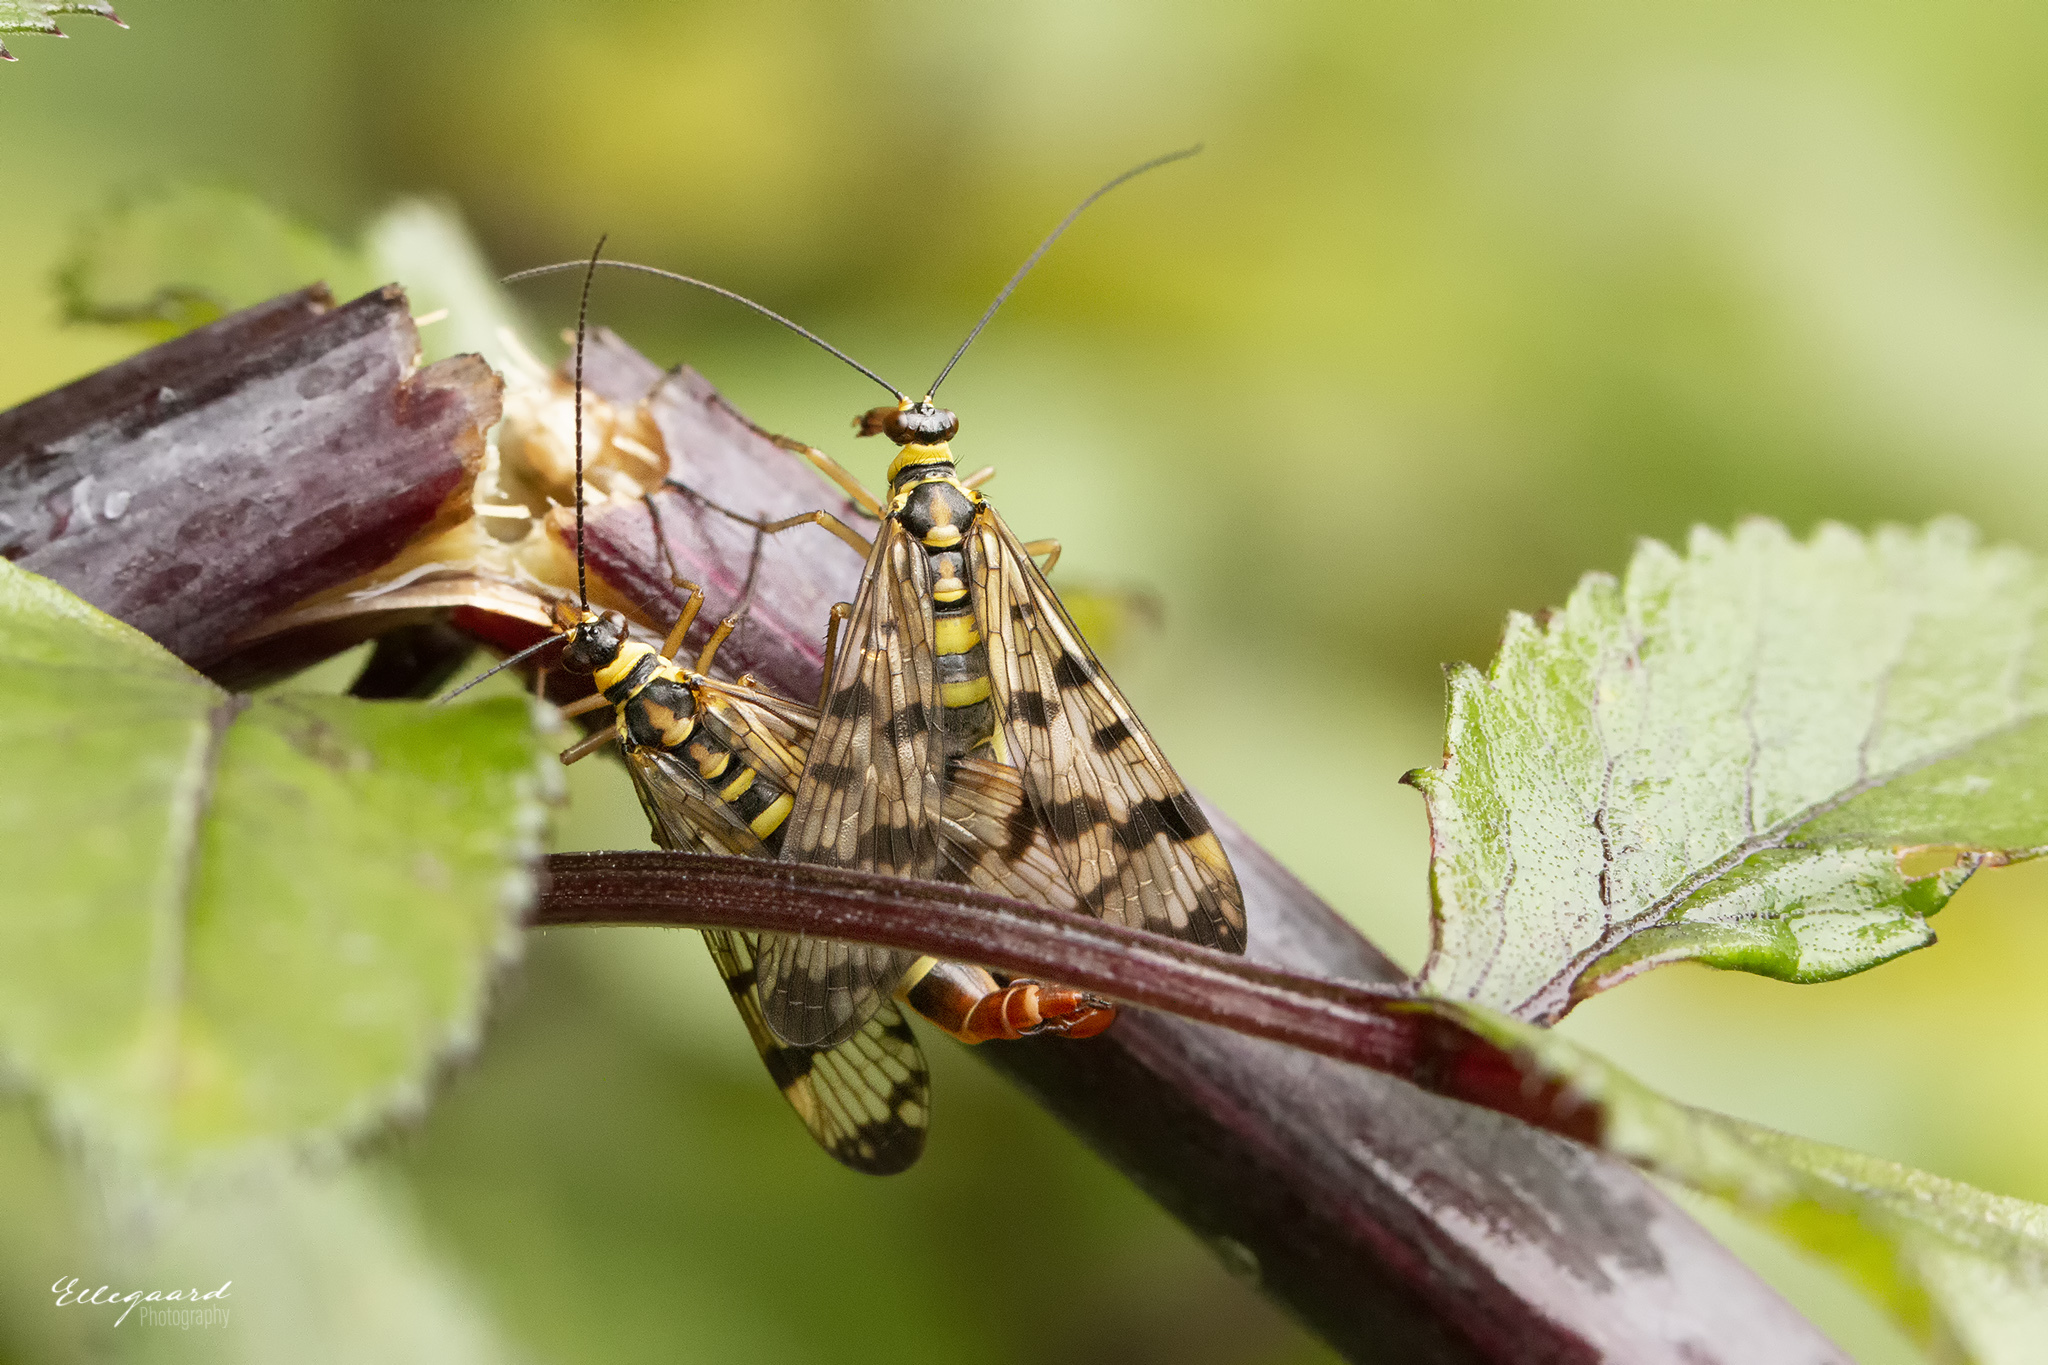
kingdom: Animalia
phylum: Arthropoda
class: Insecta
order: Mecoptera
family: Panorpidae
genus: Panorpa
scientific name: Panorpa communis
